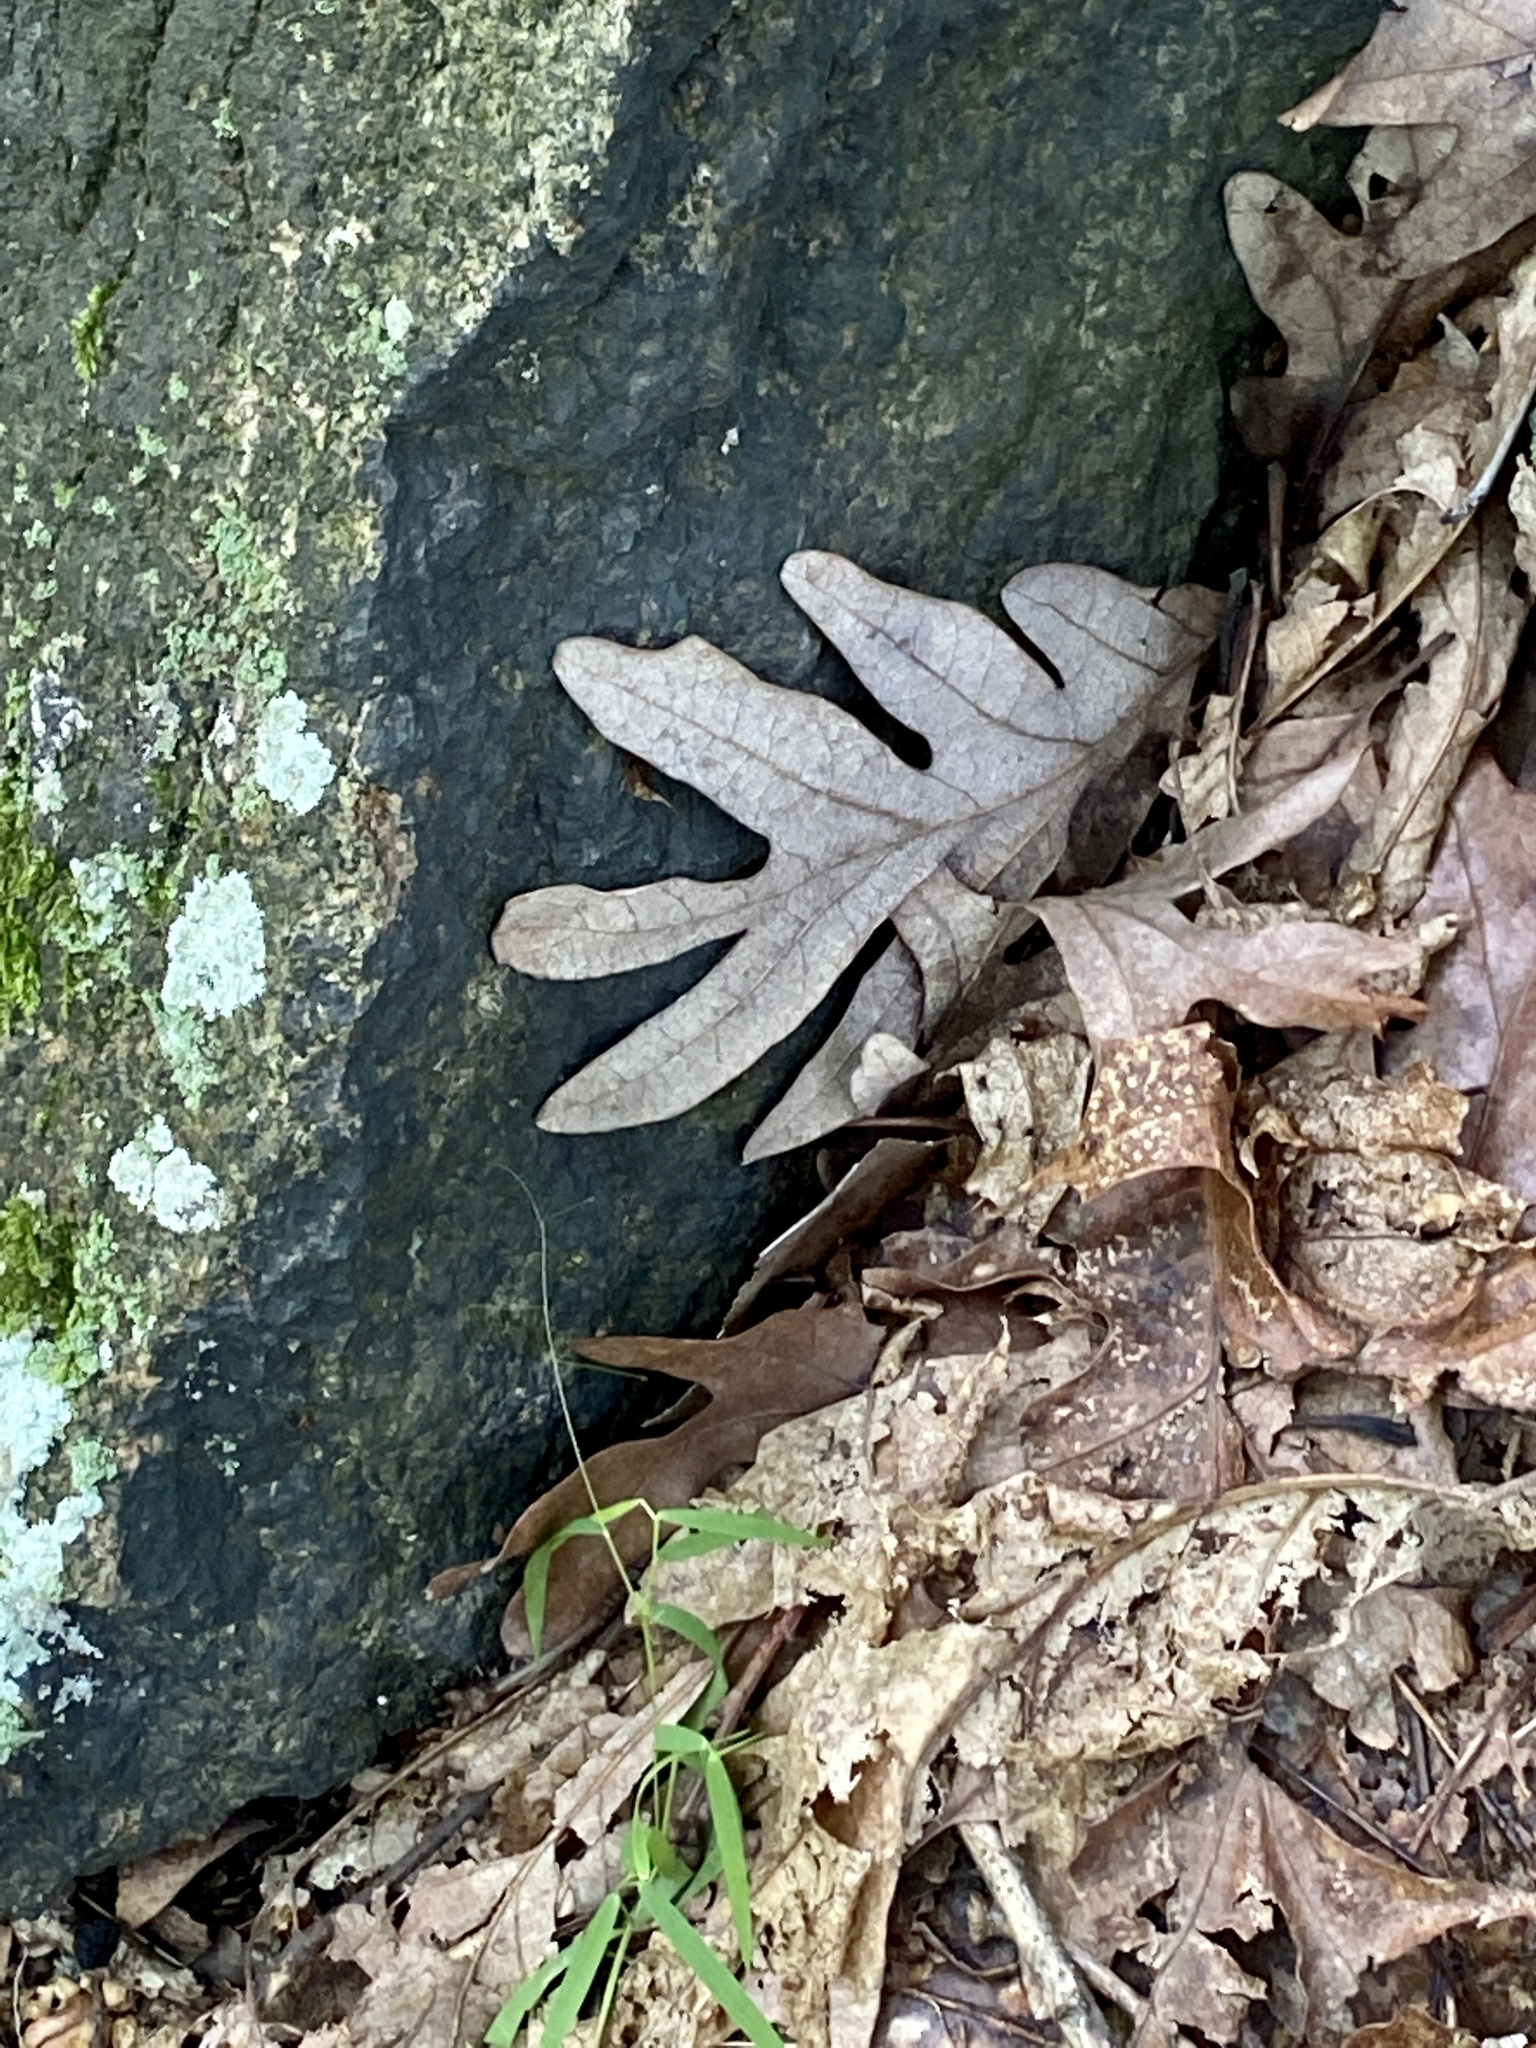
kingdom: Plantae
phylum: Tracheophyta
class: Magnoliopsida
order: Fagales
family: Fagaceae
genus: Quercus
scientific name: Quercus alba
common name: White oak
